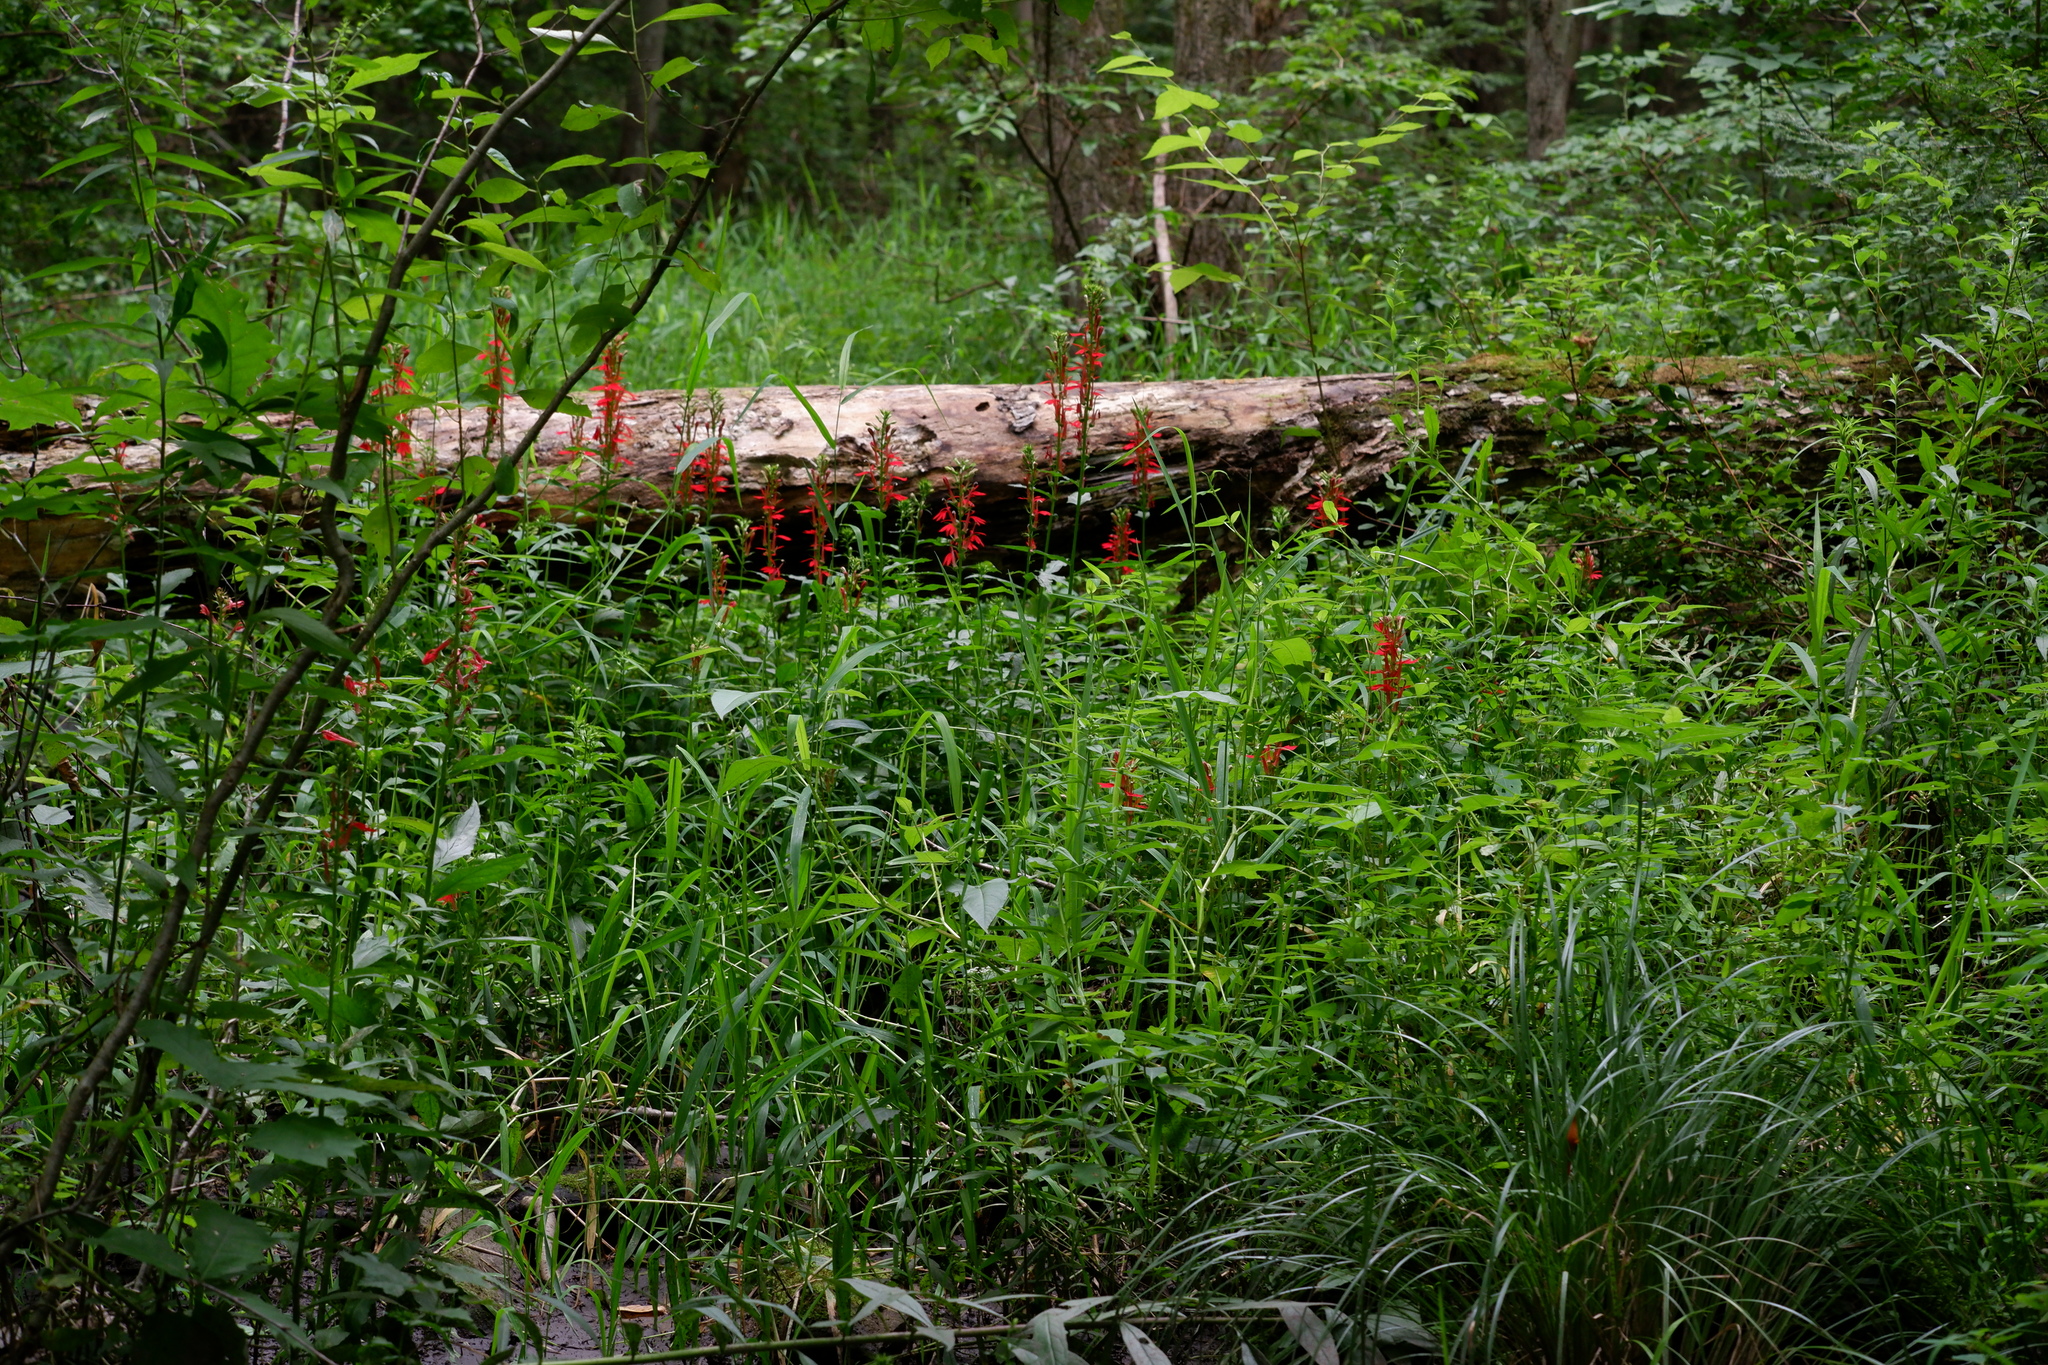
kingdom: Plantae
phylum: Tracheophyta
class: Magnoliopsida
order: Asterales
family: Campanulaceae
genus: Lobelia
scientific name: Lobelia cardinalis
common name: Cardinal flower
